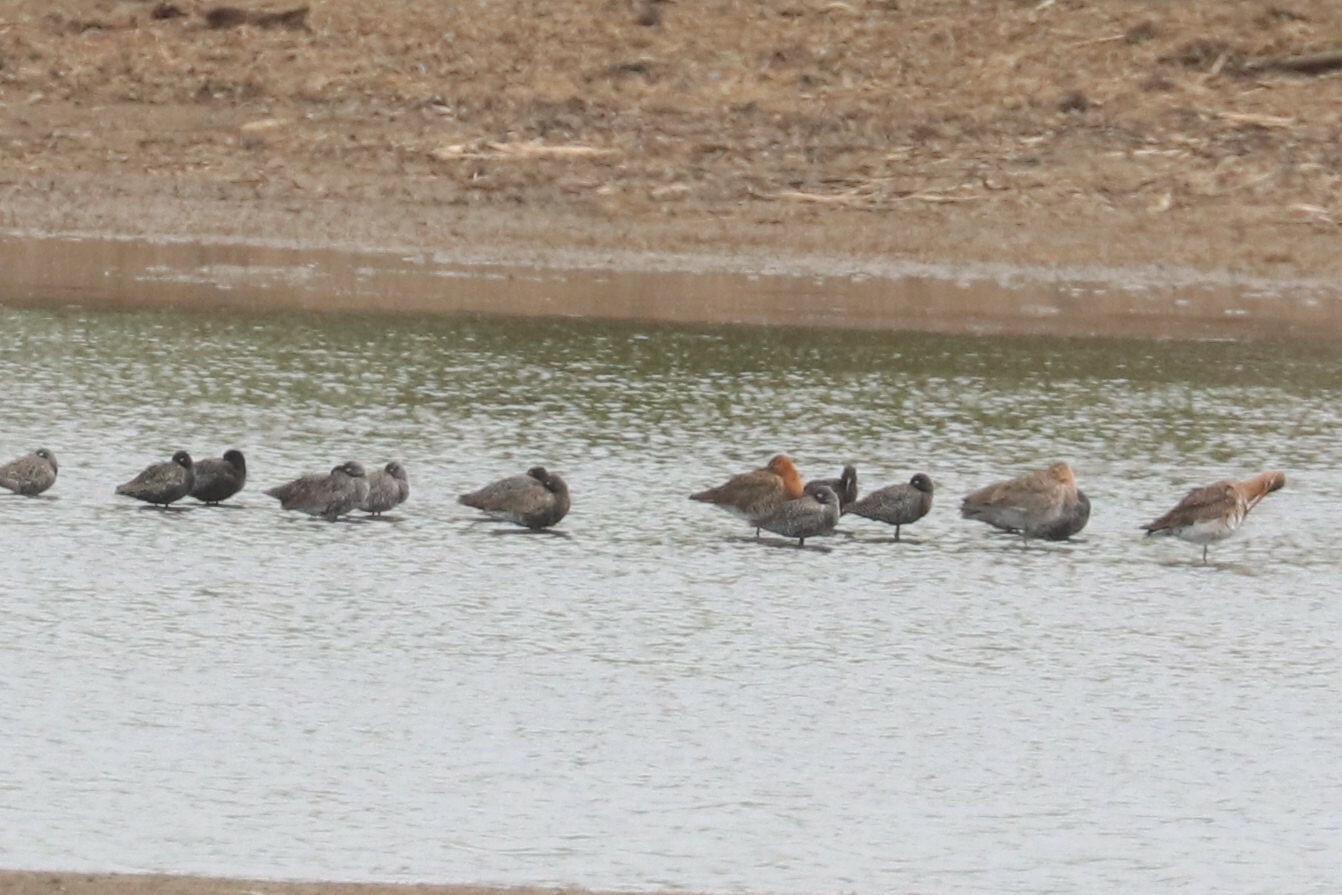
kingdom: Animalia
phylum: Chordata
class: Aves
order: Charadriiformes
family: Scolopacidae
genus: Tringa
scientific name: Tringa erythropus
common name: Spotted redshank
